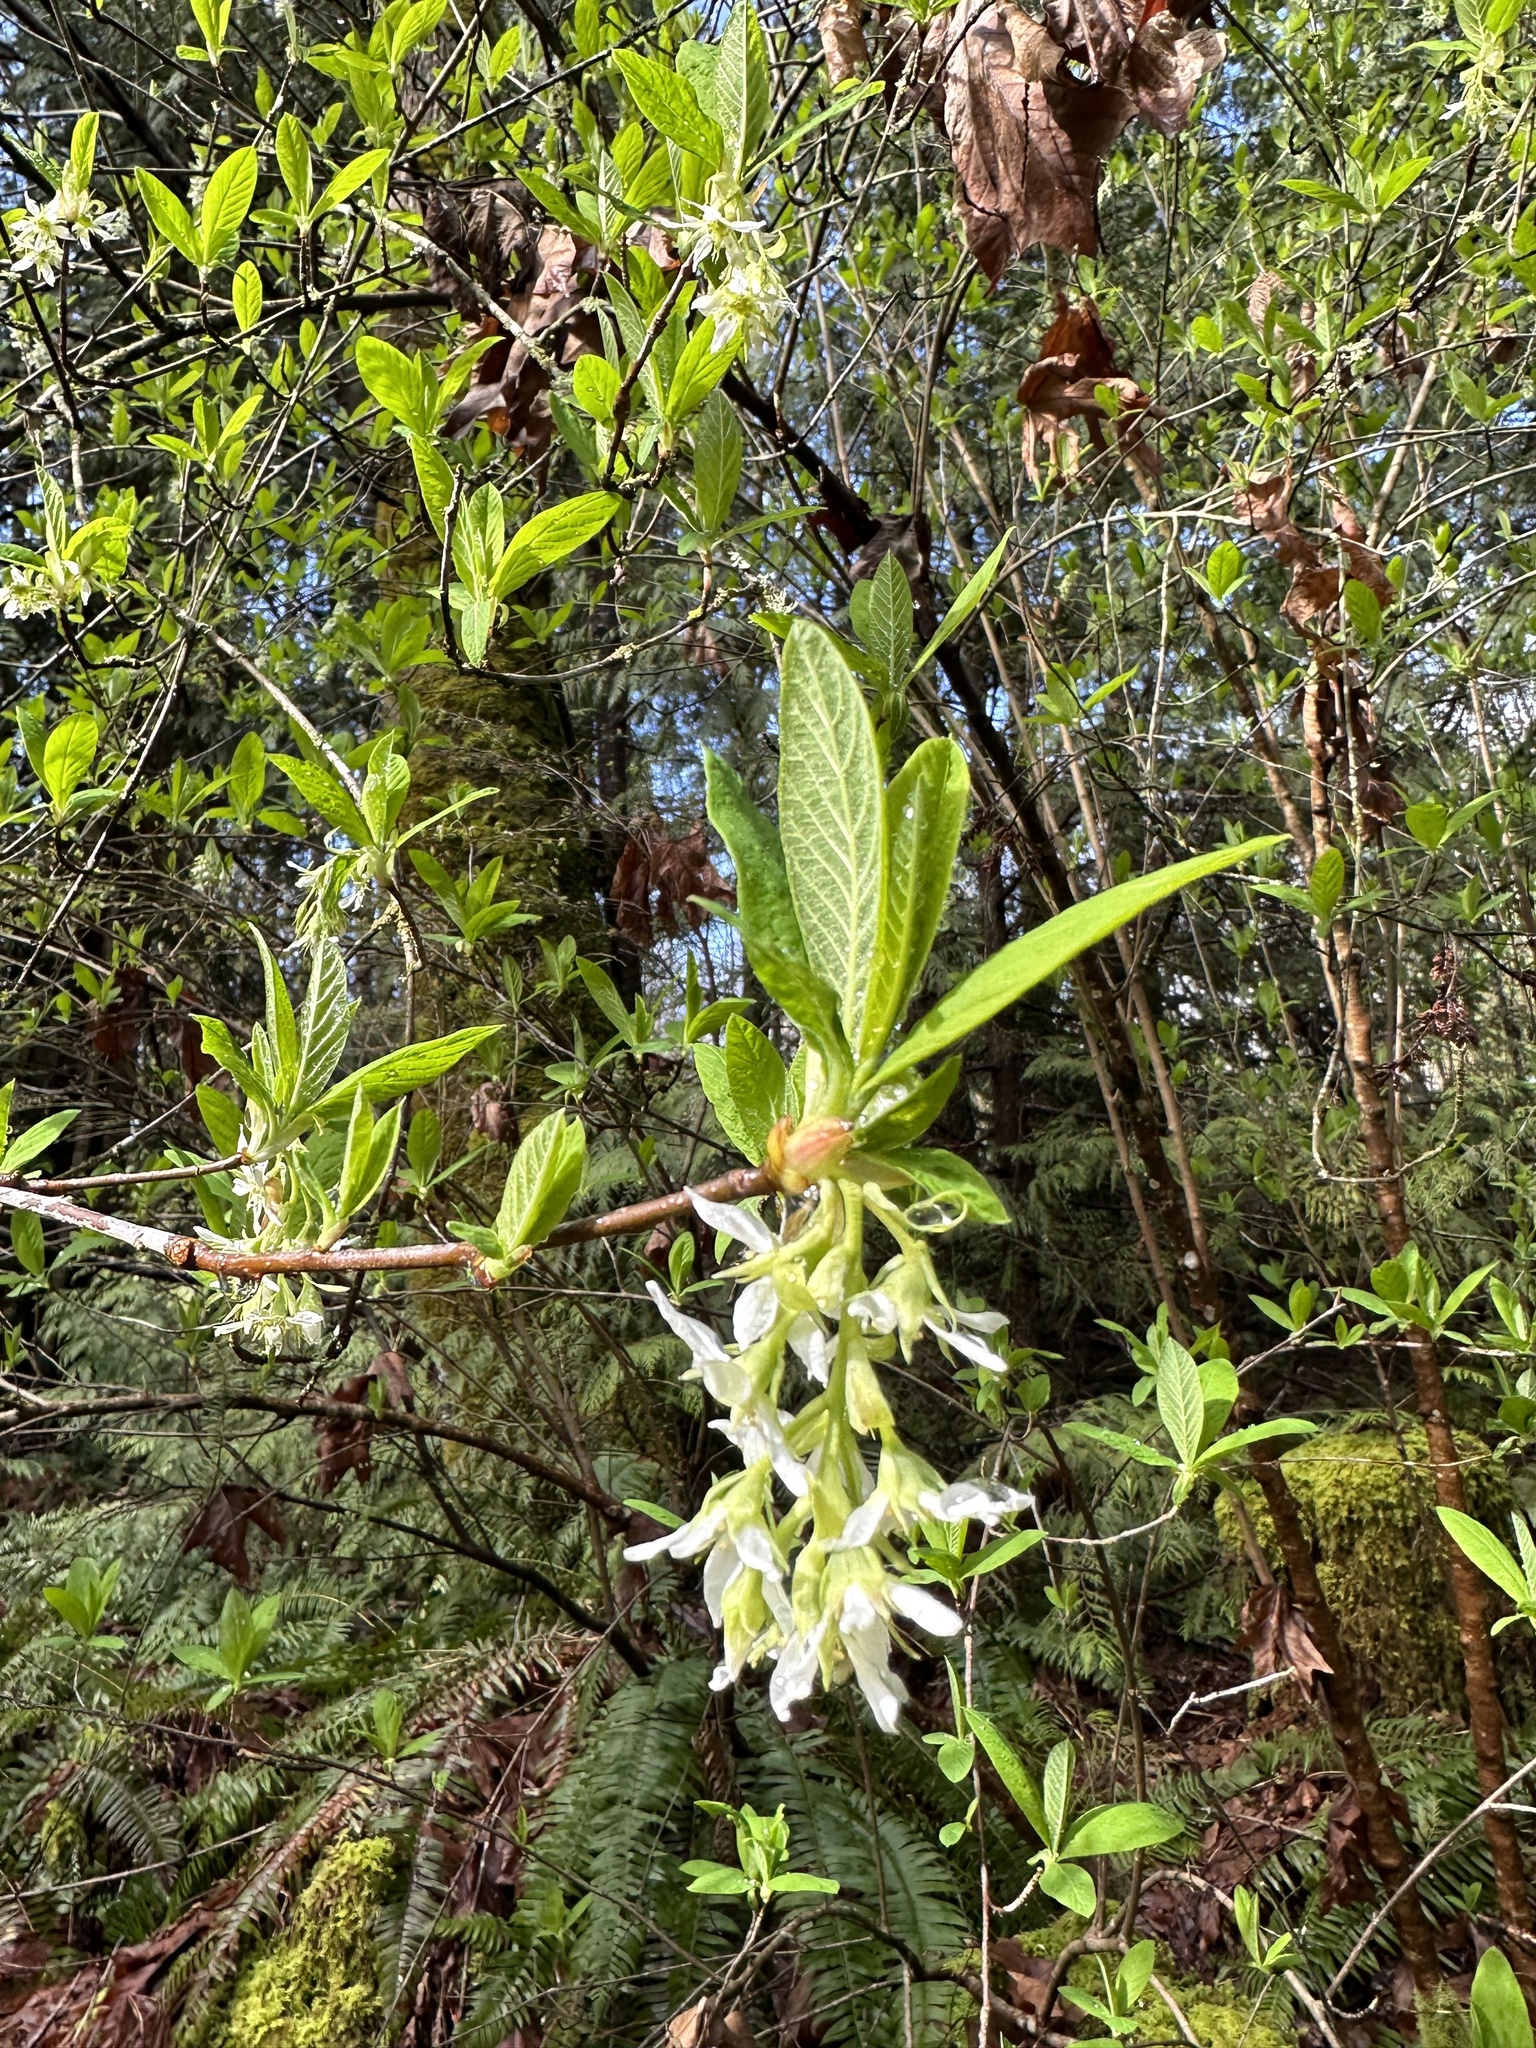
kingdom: Plantae
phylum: Tracheophyta
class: Magnoliopsida
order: Rosales
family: Rosaceae
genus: Oemleria
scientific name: Oemleria cerasiformis
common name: Osoberry
